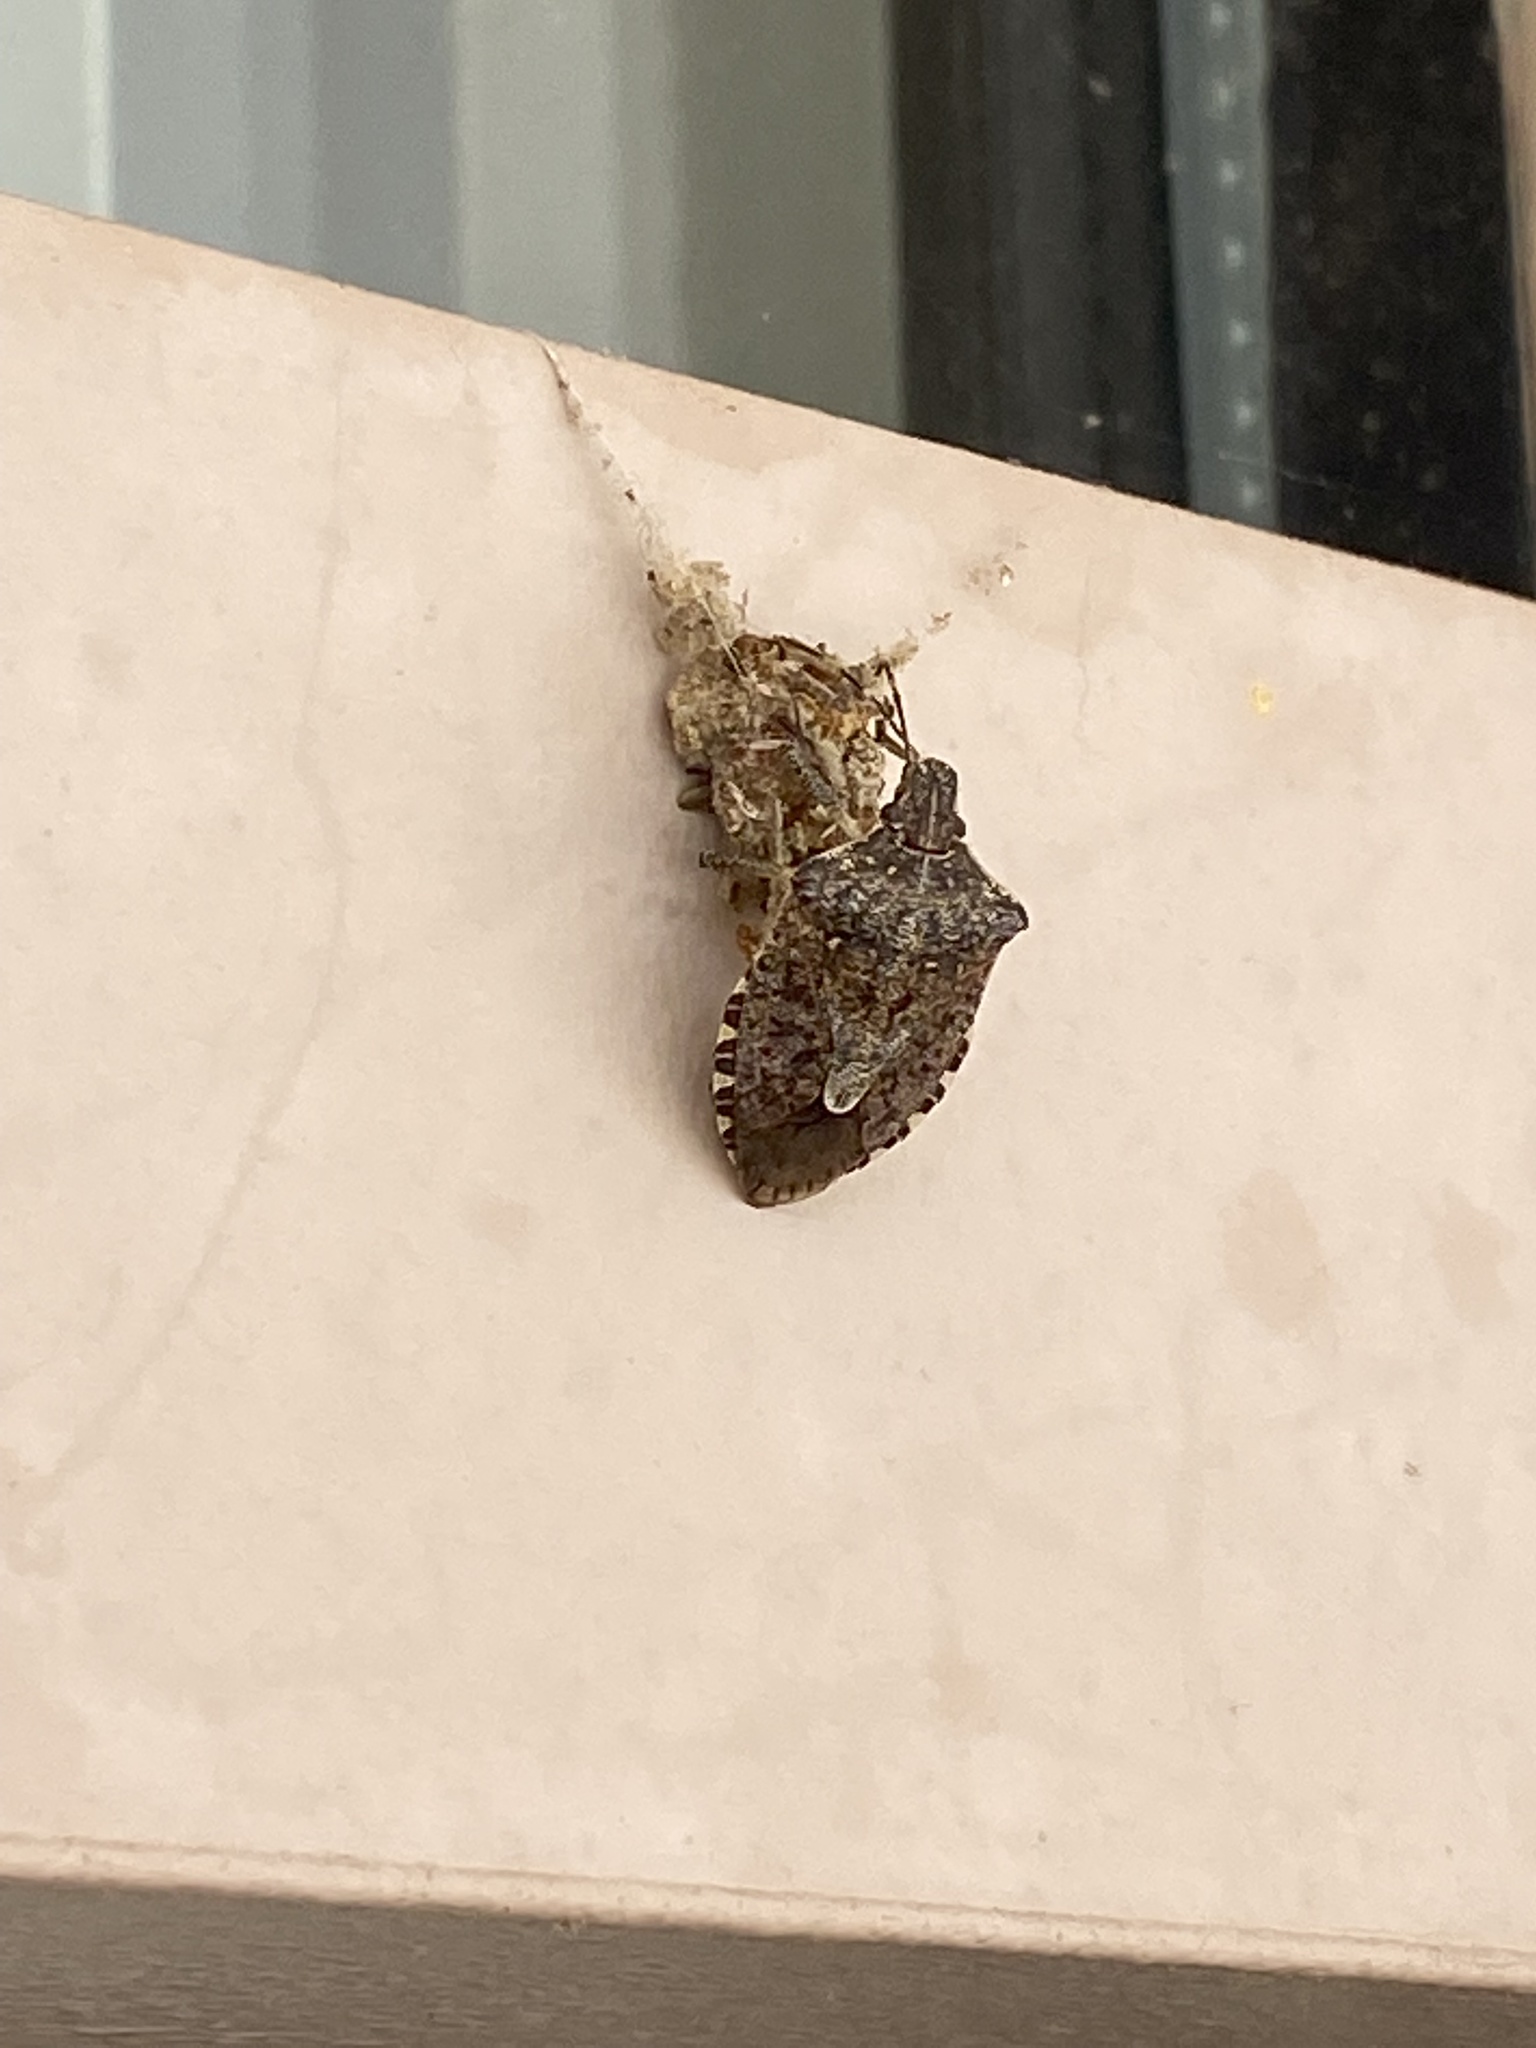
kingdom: Animalia
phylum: Arthropoda
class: Insecta
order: Hemiptera
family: Pentatomidae
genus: Halyomorpha
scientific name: Halyomorpha halys
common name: Brown marmorated stink bug
